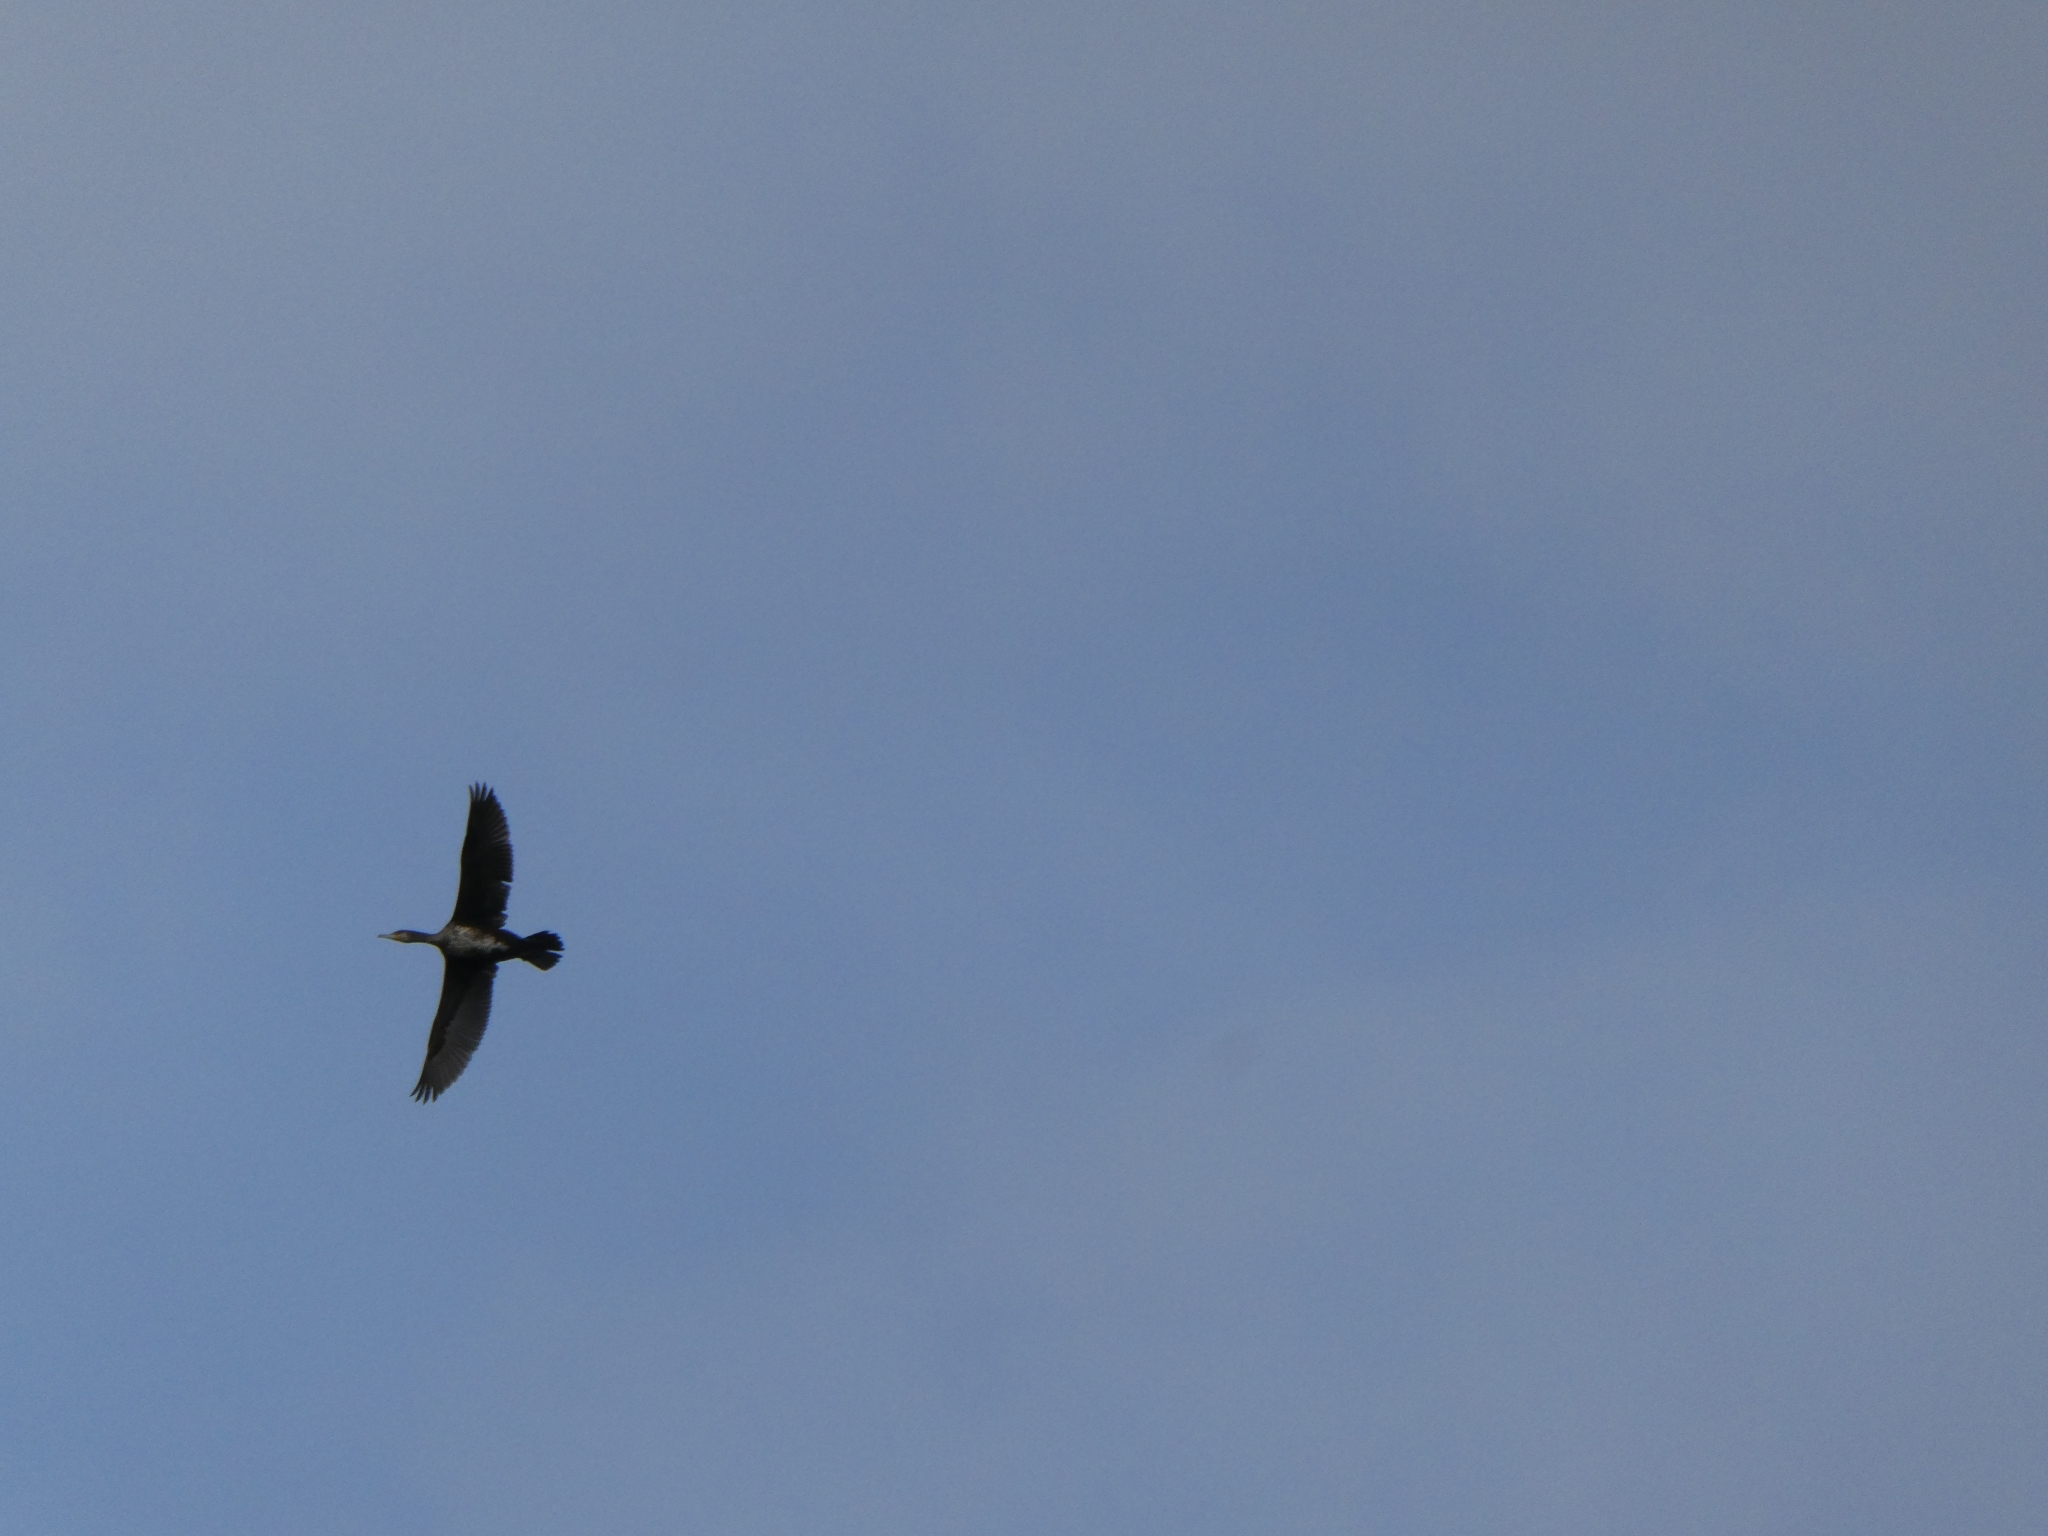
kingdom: Animalia
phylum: Chordata
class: Aves
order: Suliformes
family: Phalacrocoracidae
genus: Phalacrocorax
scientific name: Phalacrocorax carbo
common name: Great cormorant
